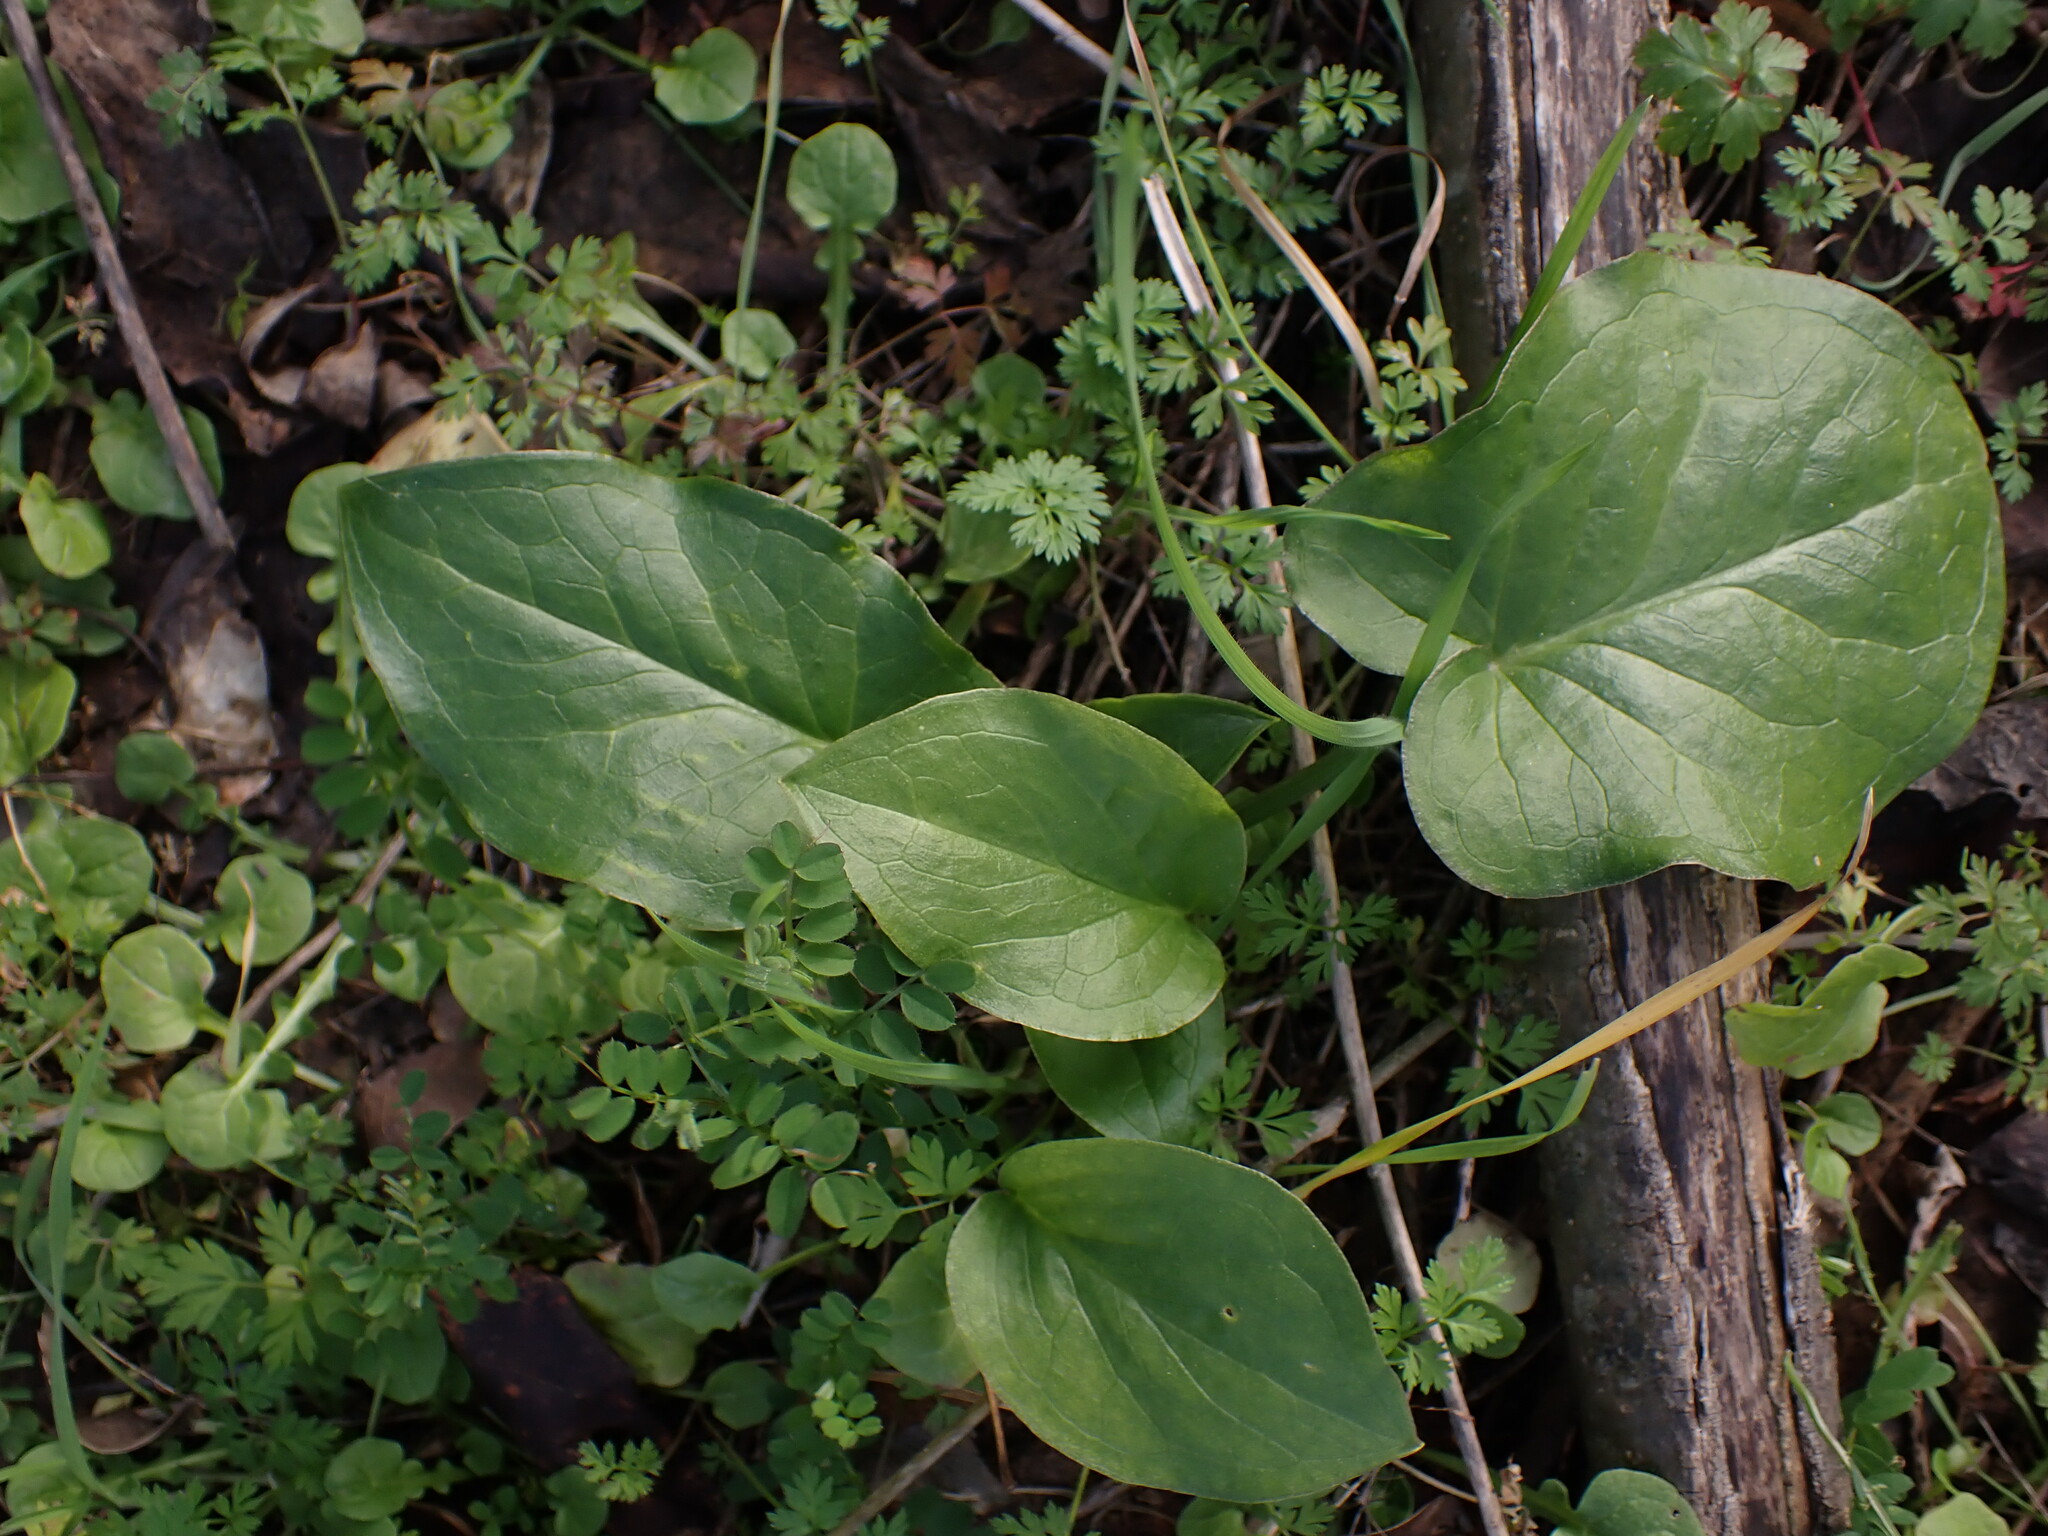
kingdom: Plantae
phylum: Tracheophyta
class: Liliopsida
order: Alismatales
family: Araceae
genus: Arum
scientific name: Arum italicum
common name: Italian lords-and-ladies
